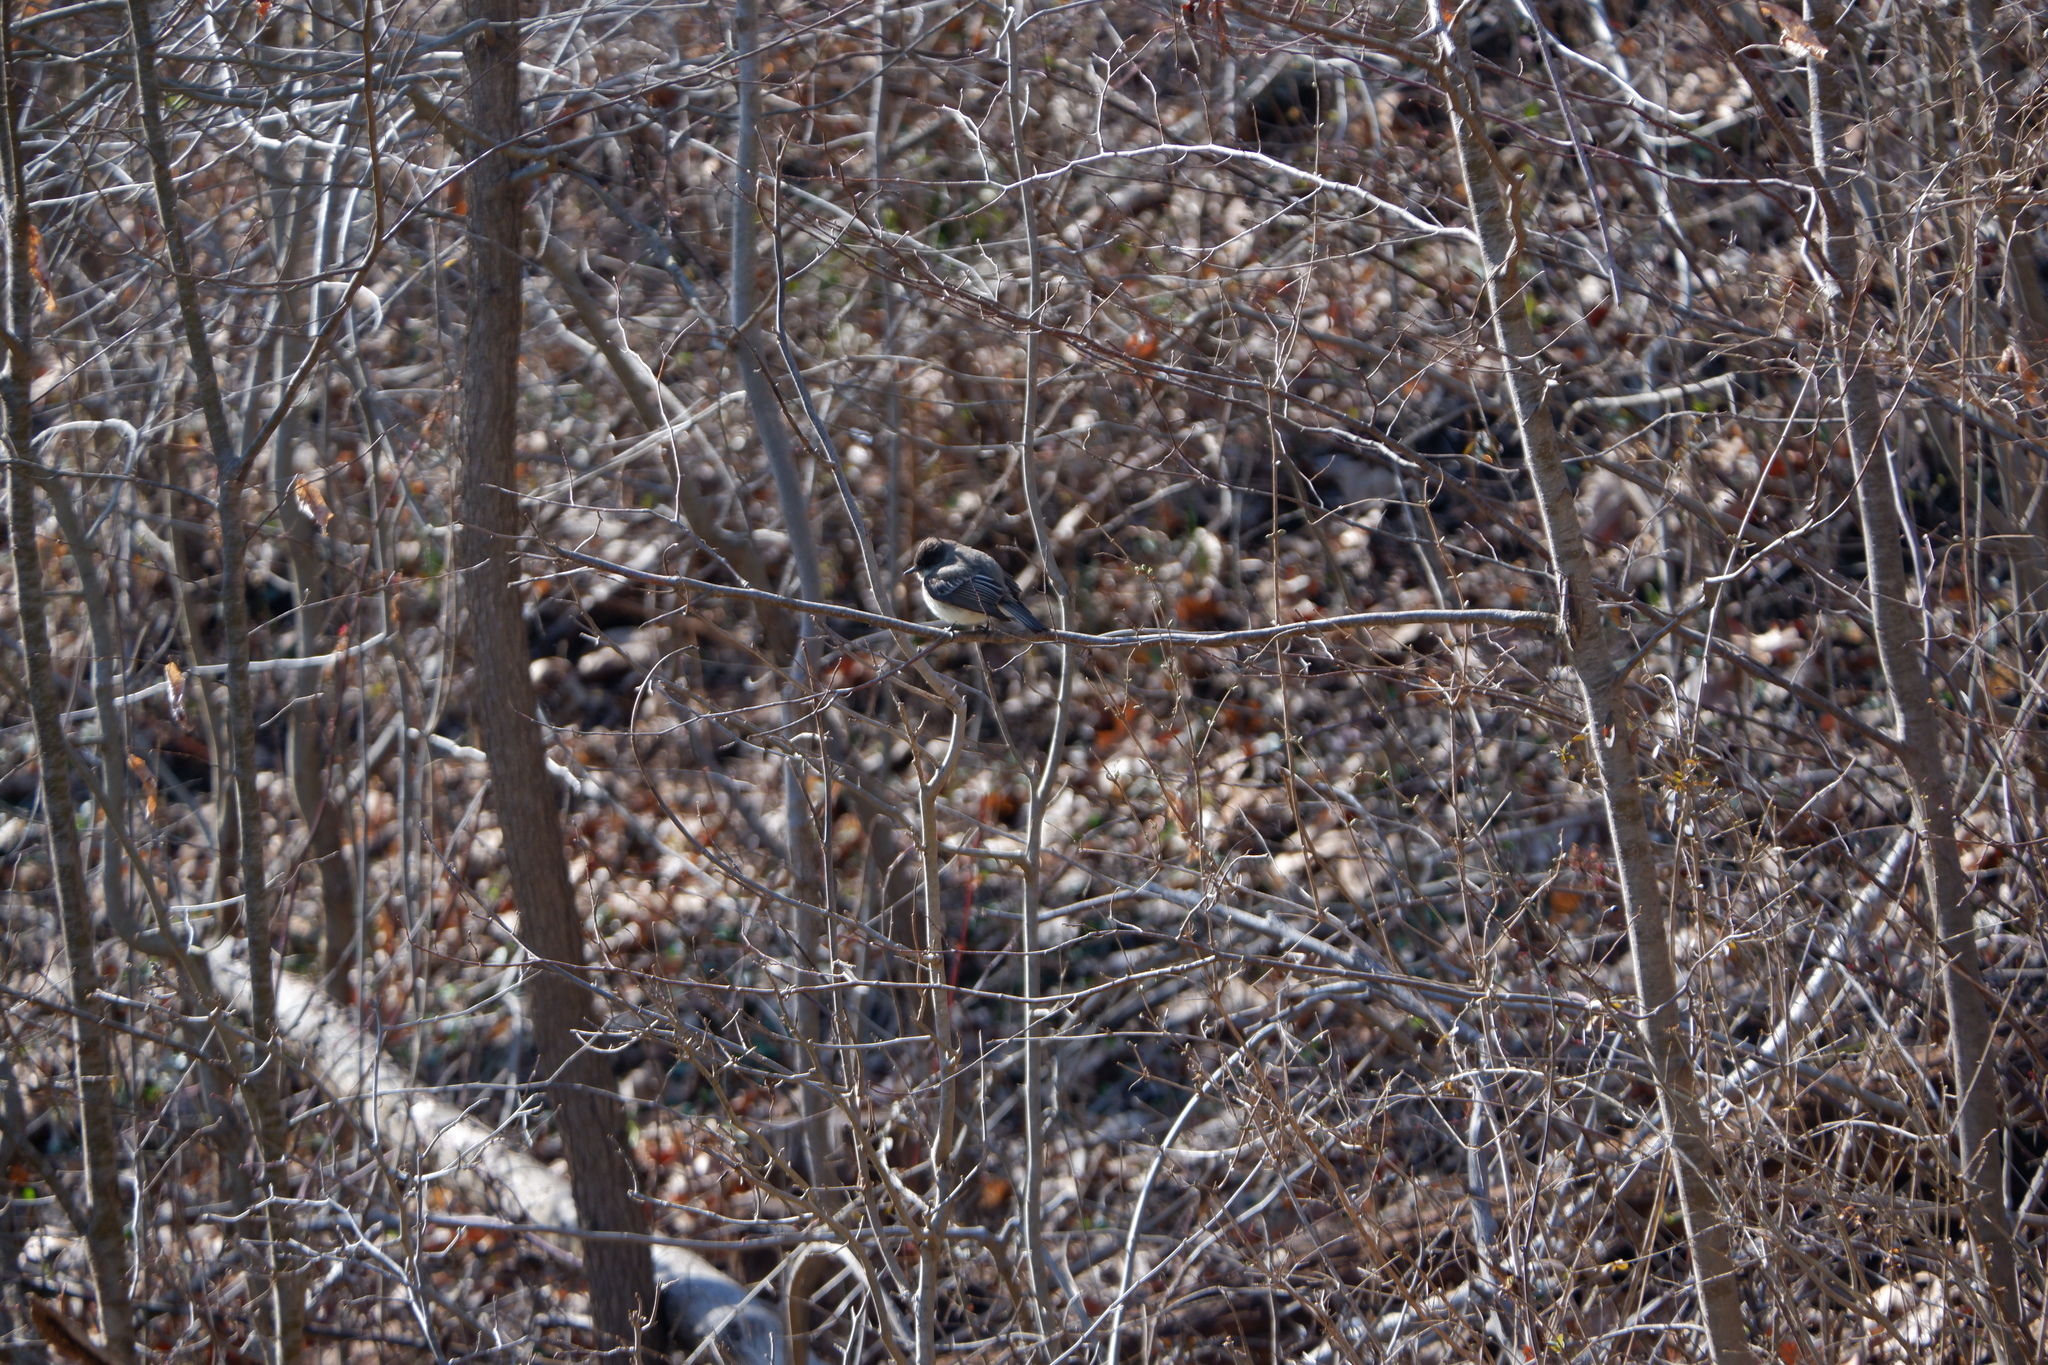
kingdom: Animalia
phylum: Chordata
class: Aves
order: Passeriformes
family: Tyrannidae
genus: Sayornis
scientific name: Sayornis phoebe
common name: Eastern phoebe
